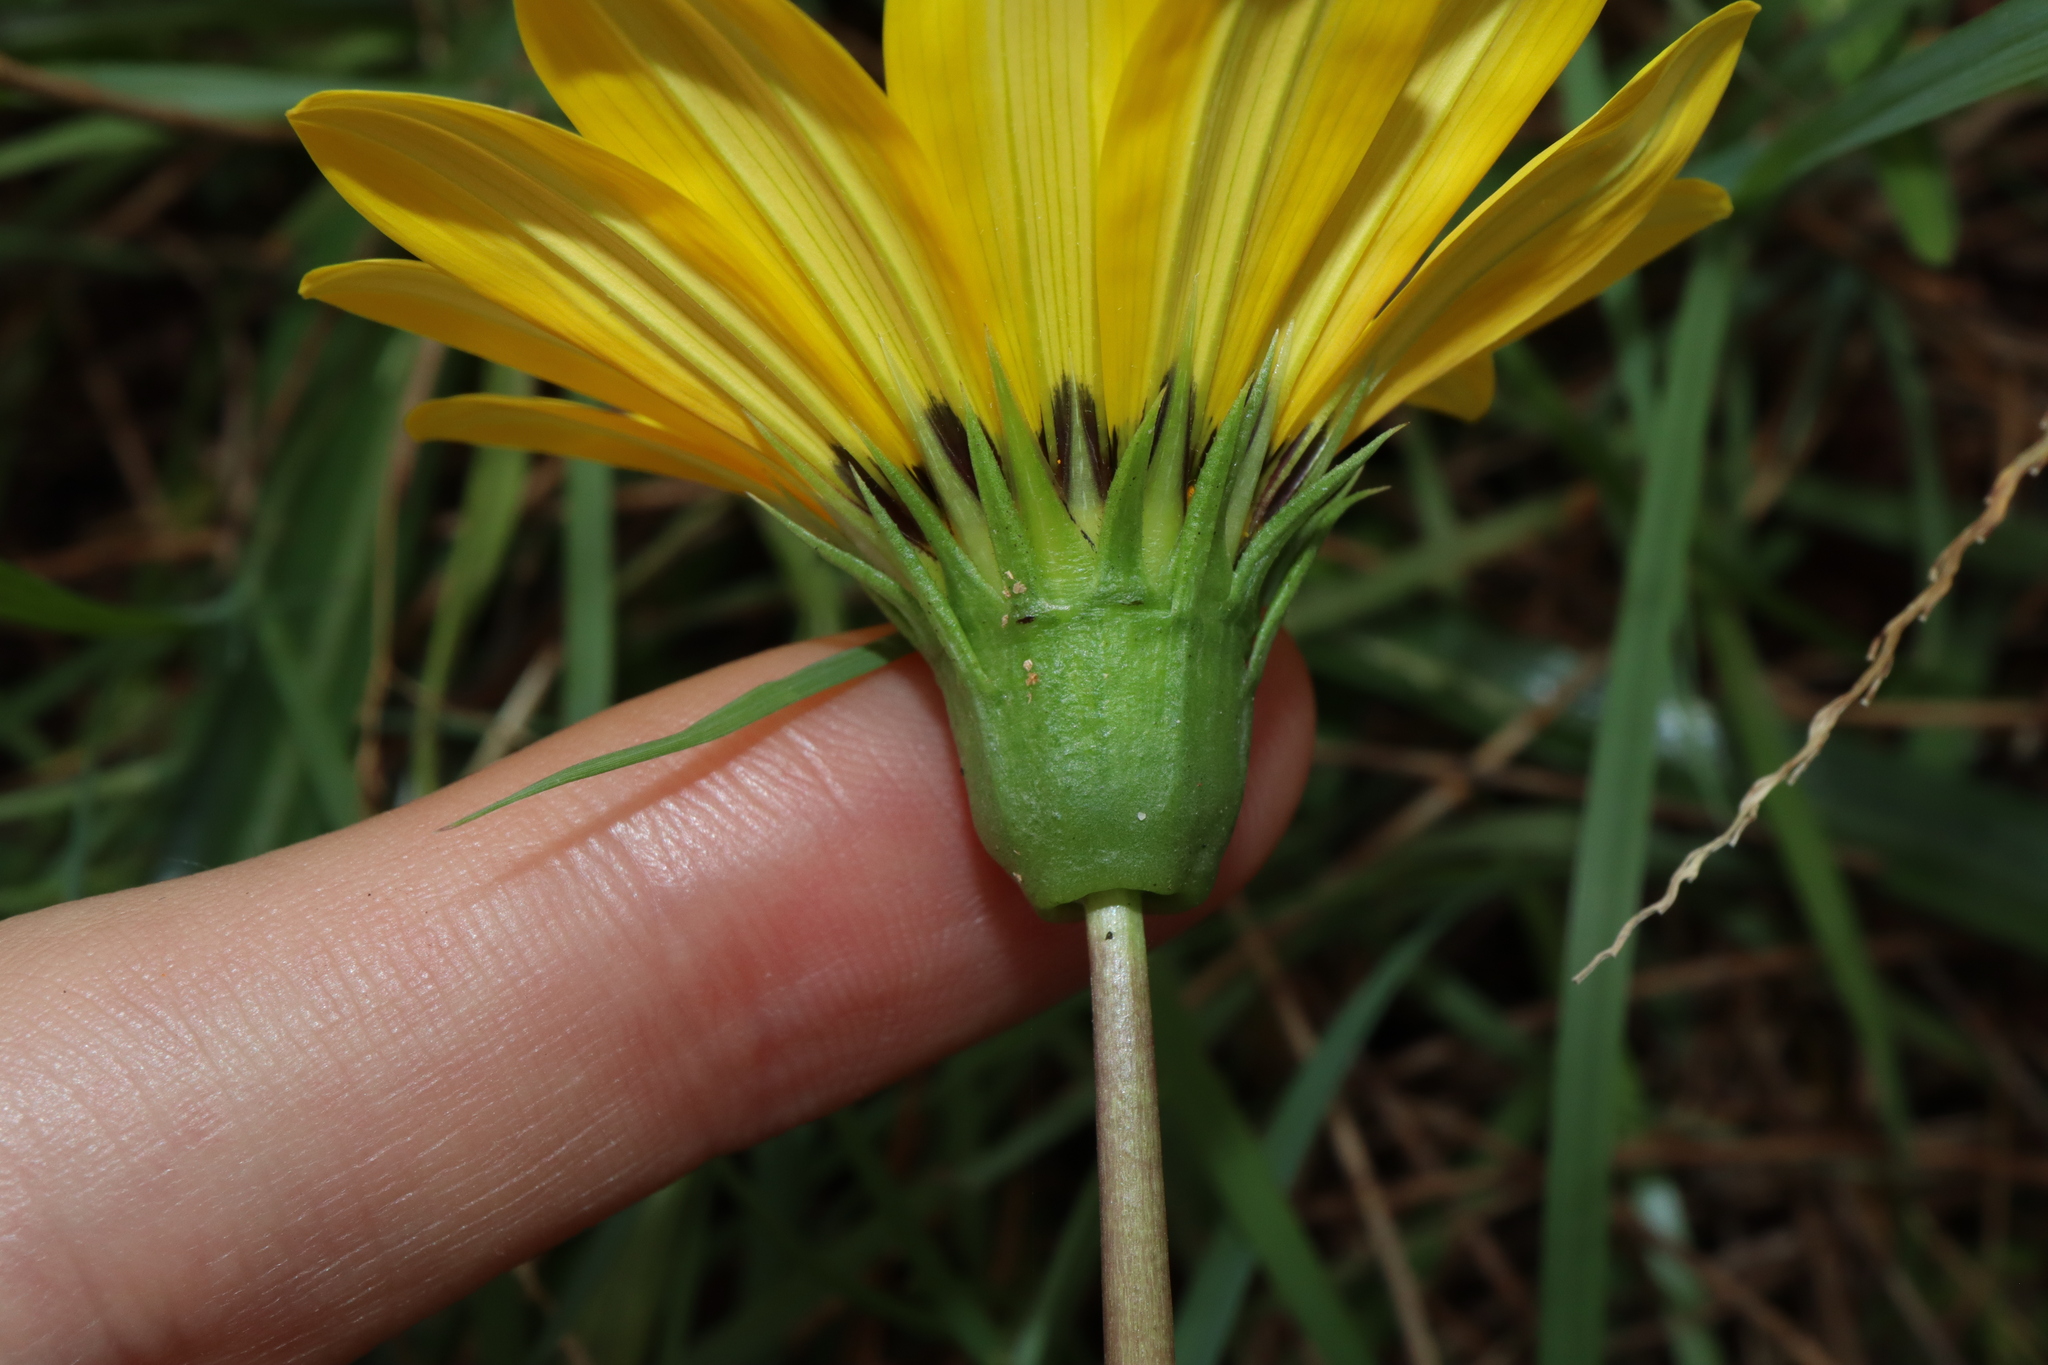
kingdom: Plantae
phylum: Tracheophyta
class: Magnoliopsida
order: Asterales
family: Asteraceae
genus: Gazania
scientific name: Gazania splendens
